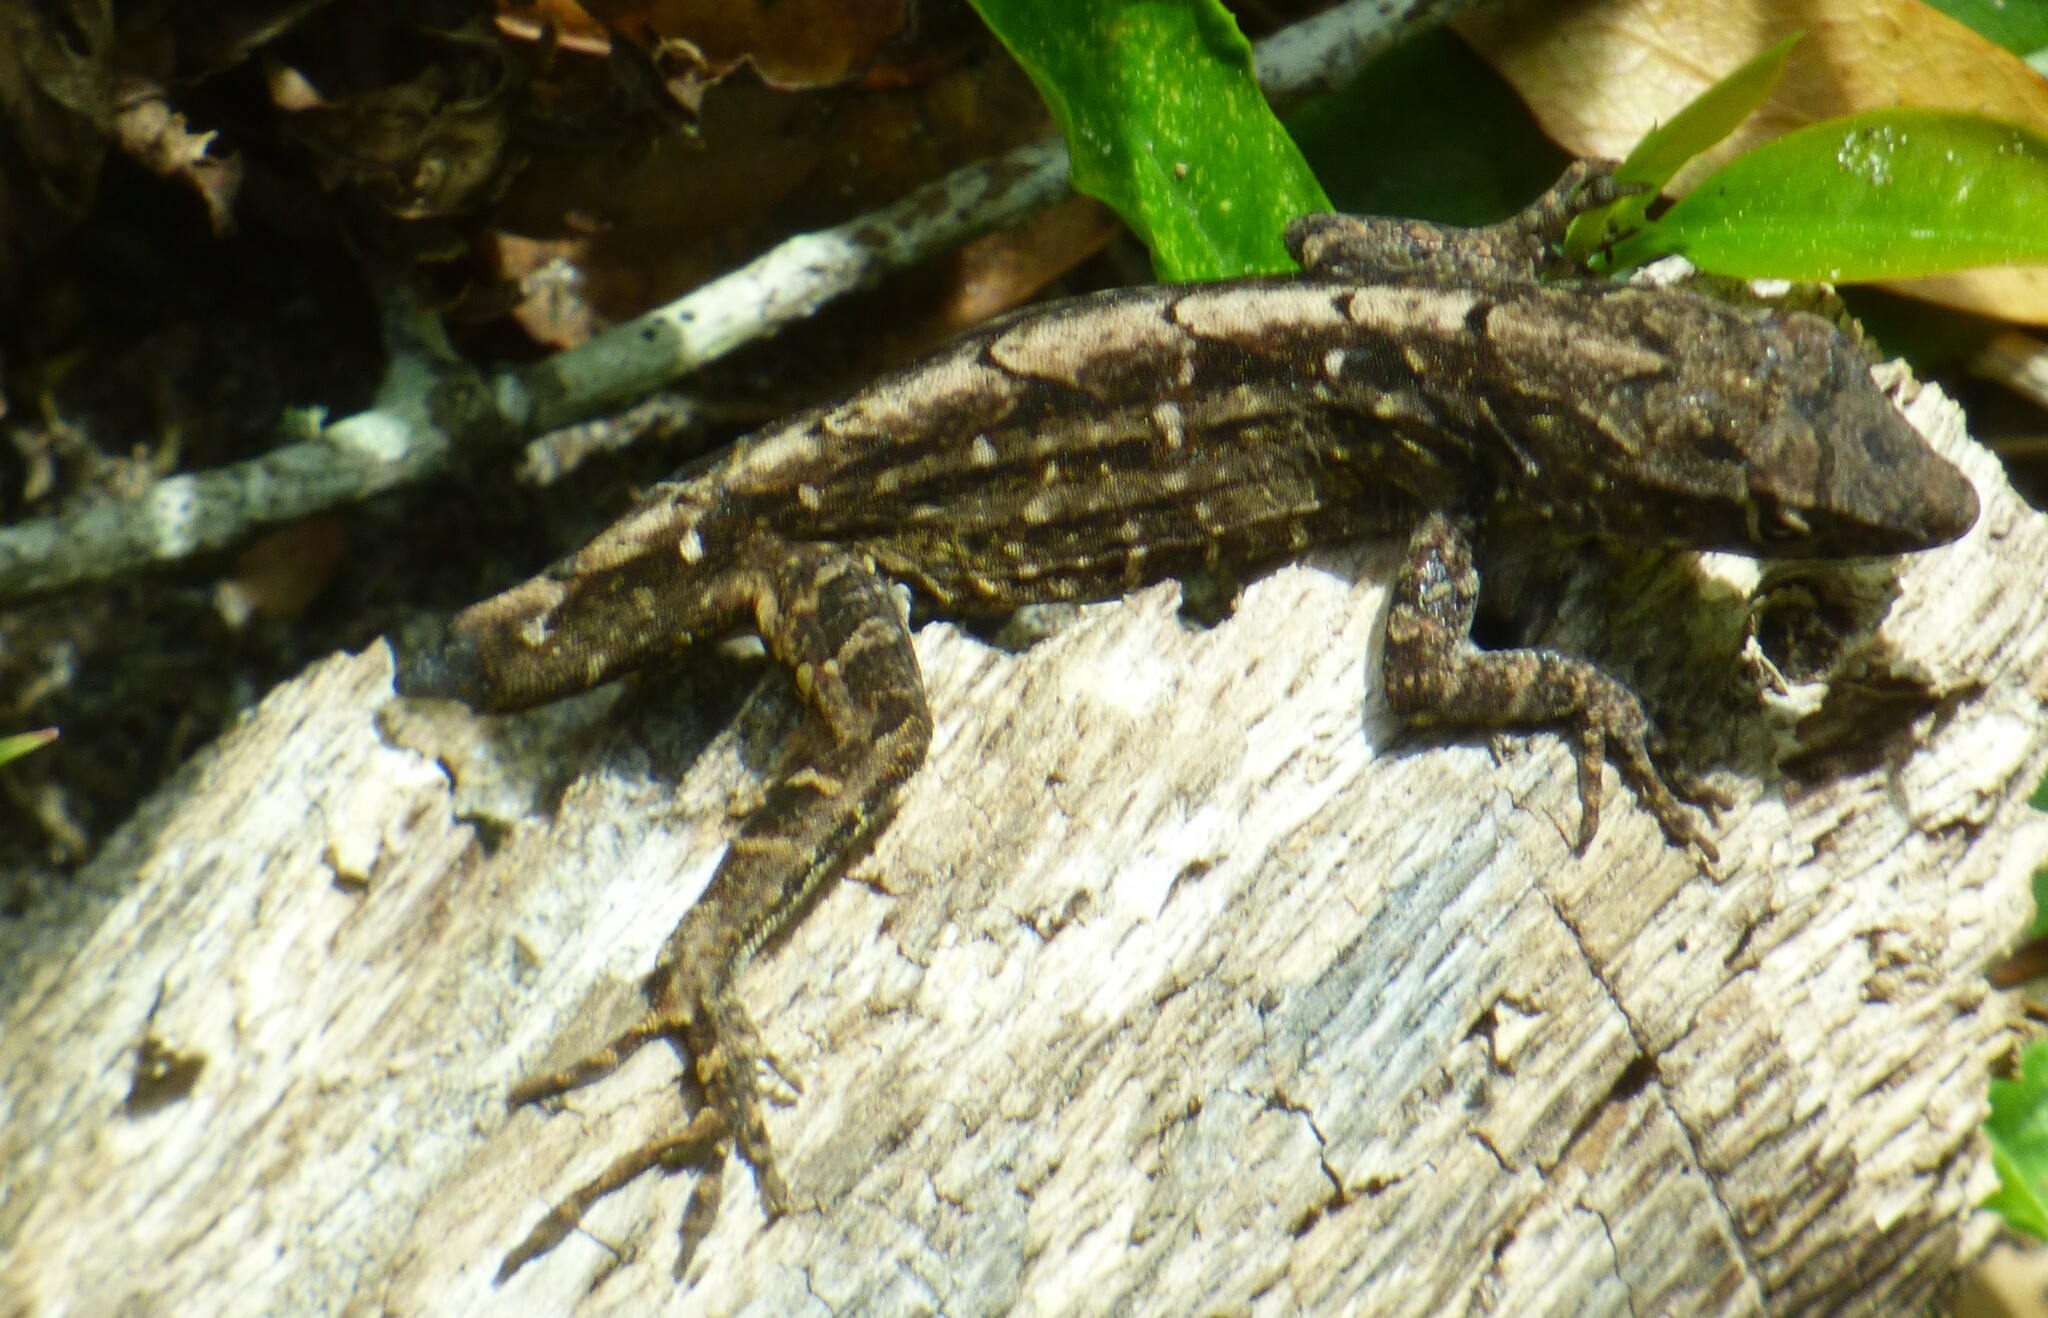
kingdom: Animalia
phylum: Chordata
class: Squamata
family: Dactyloidae
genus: Anolis
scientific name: Anolis sagrei
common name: Brown anole
